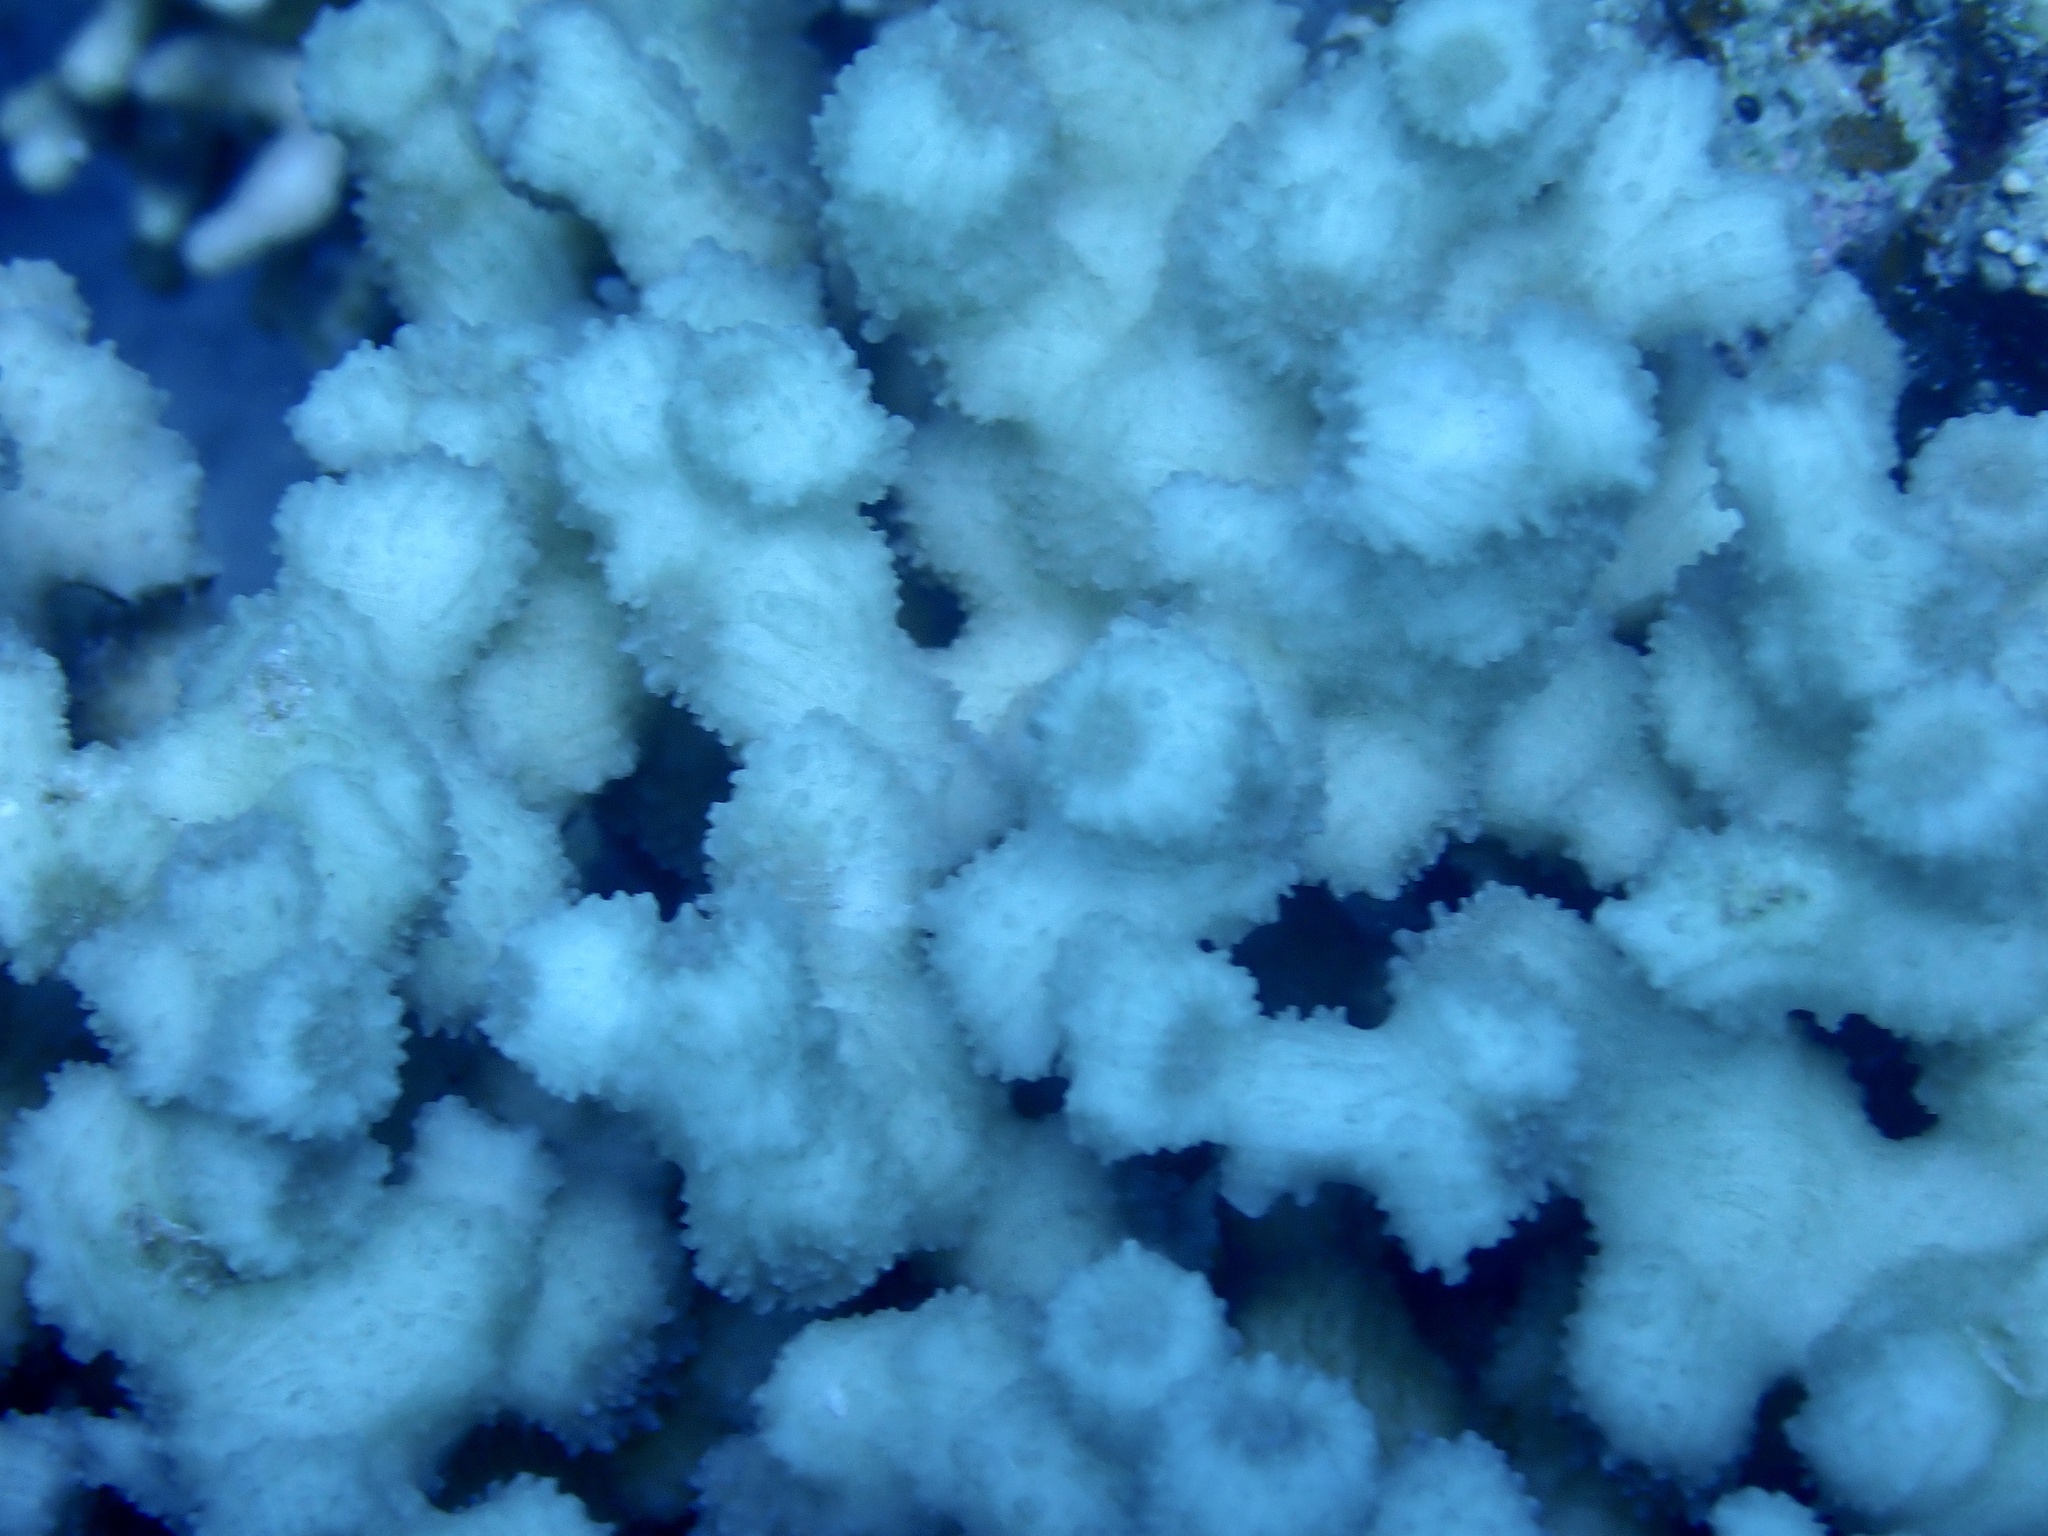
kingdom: Animalia
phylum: Cnidaria
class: Anthozoa
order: Scleractinia
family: Merulinidae
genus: Echinopora
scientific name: Echinopora fruticulosa
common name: Hedgehog coral
